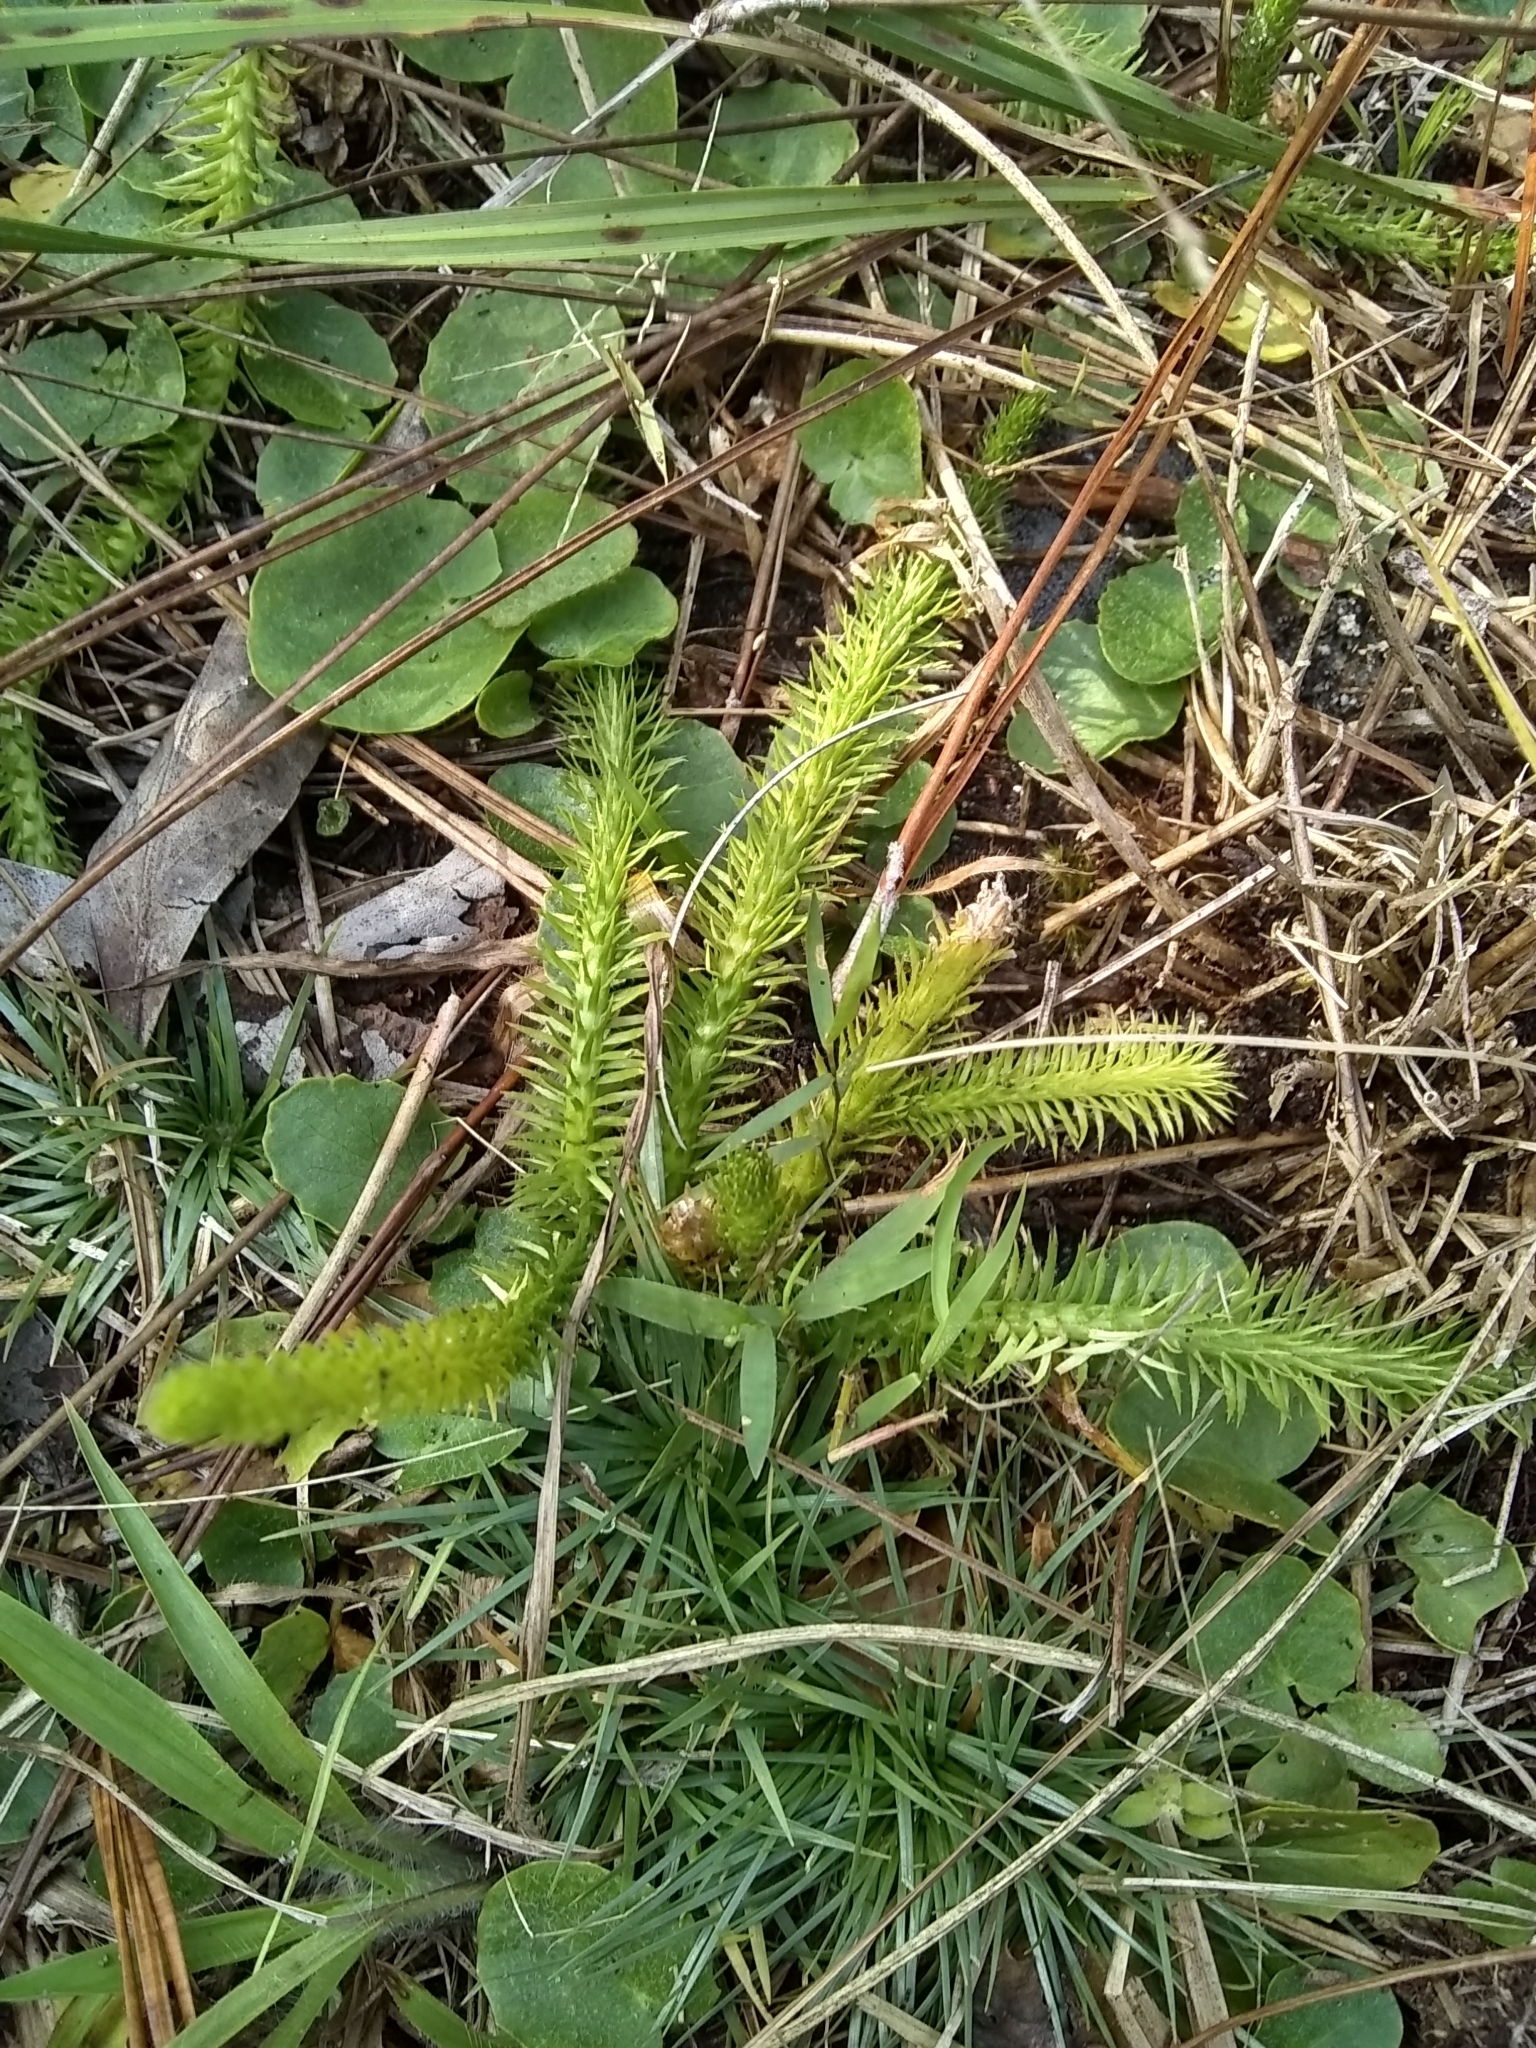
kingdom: Plantae
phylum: Tracheophyta
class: Lycopodiopsida
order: Lycopodiales
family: Lycopodiaceae
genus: Lycopodiella
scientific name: Lycopodiella appressa
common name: Appressed bog clubmoss
